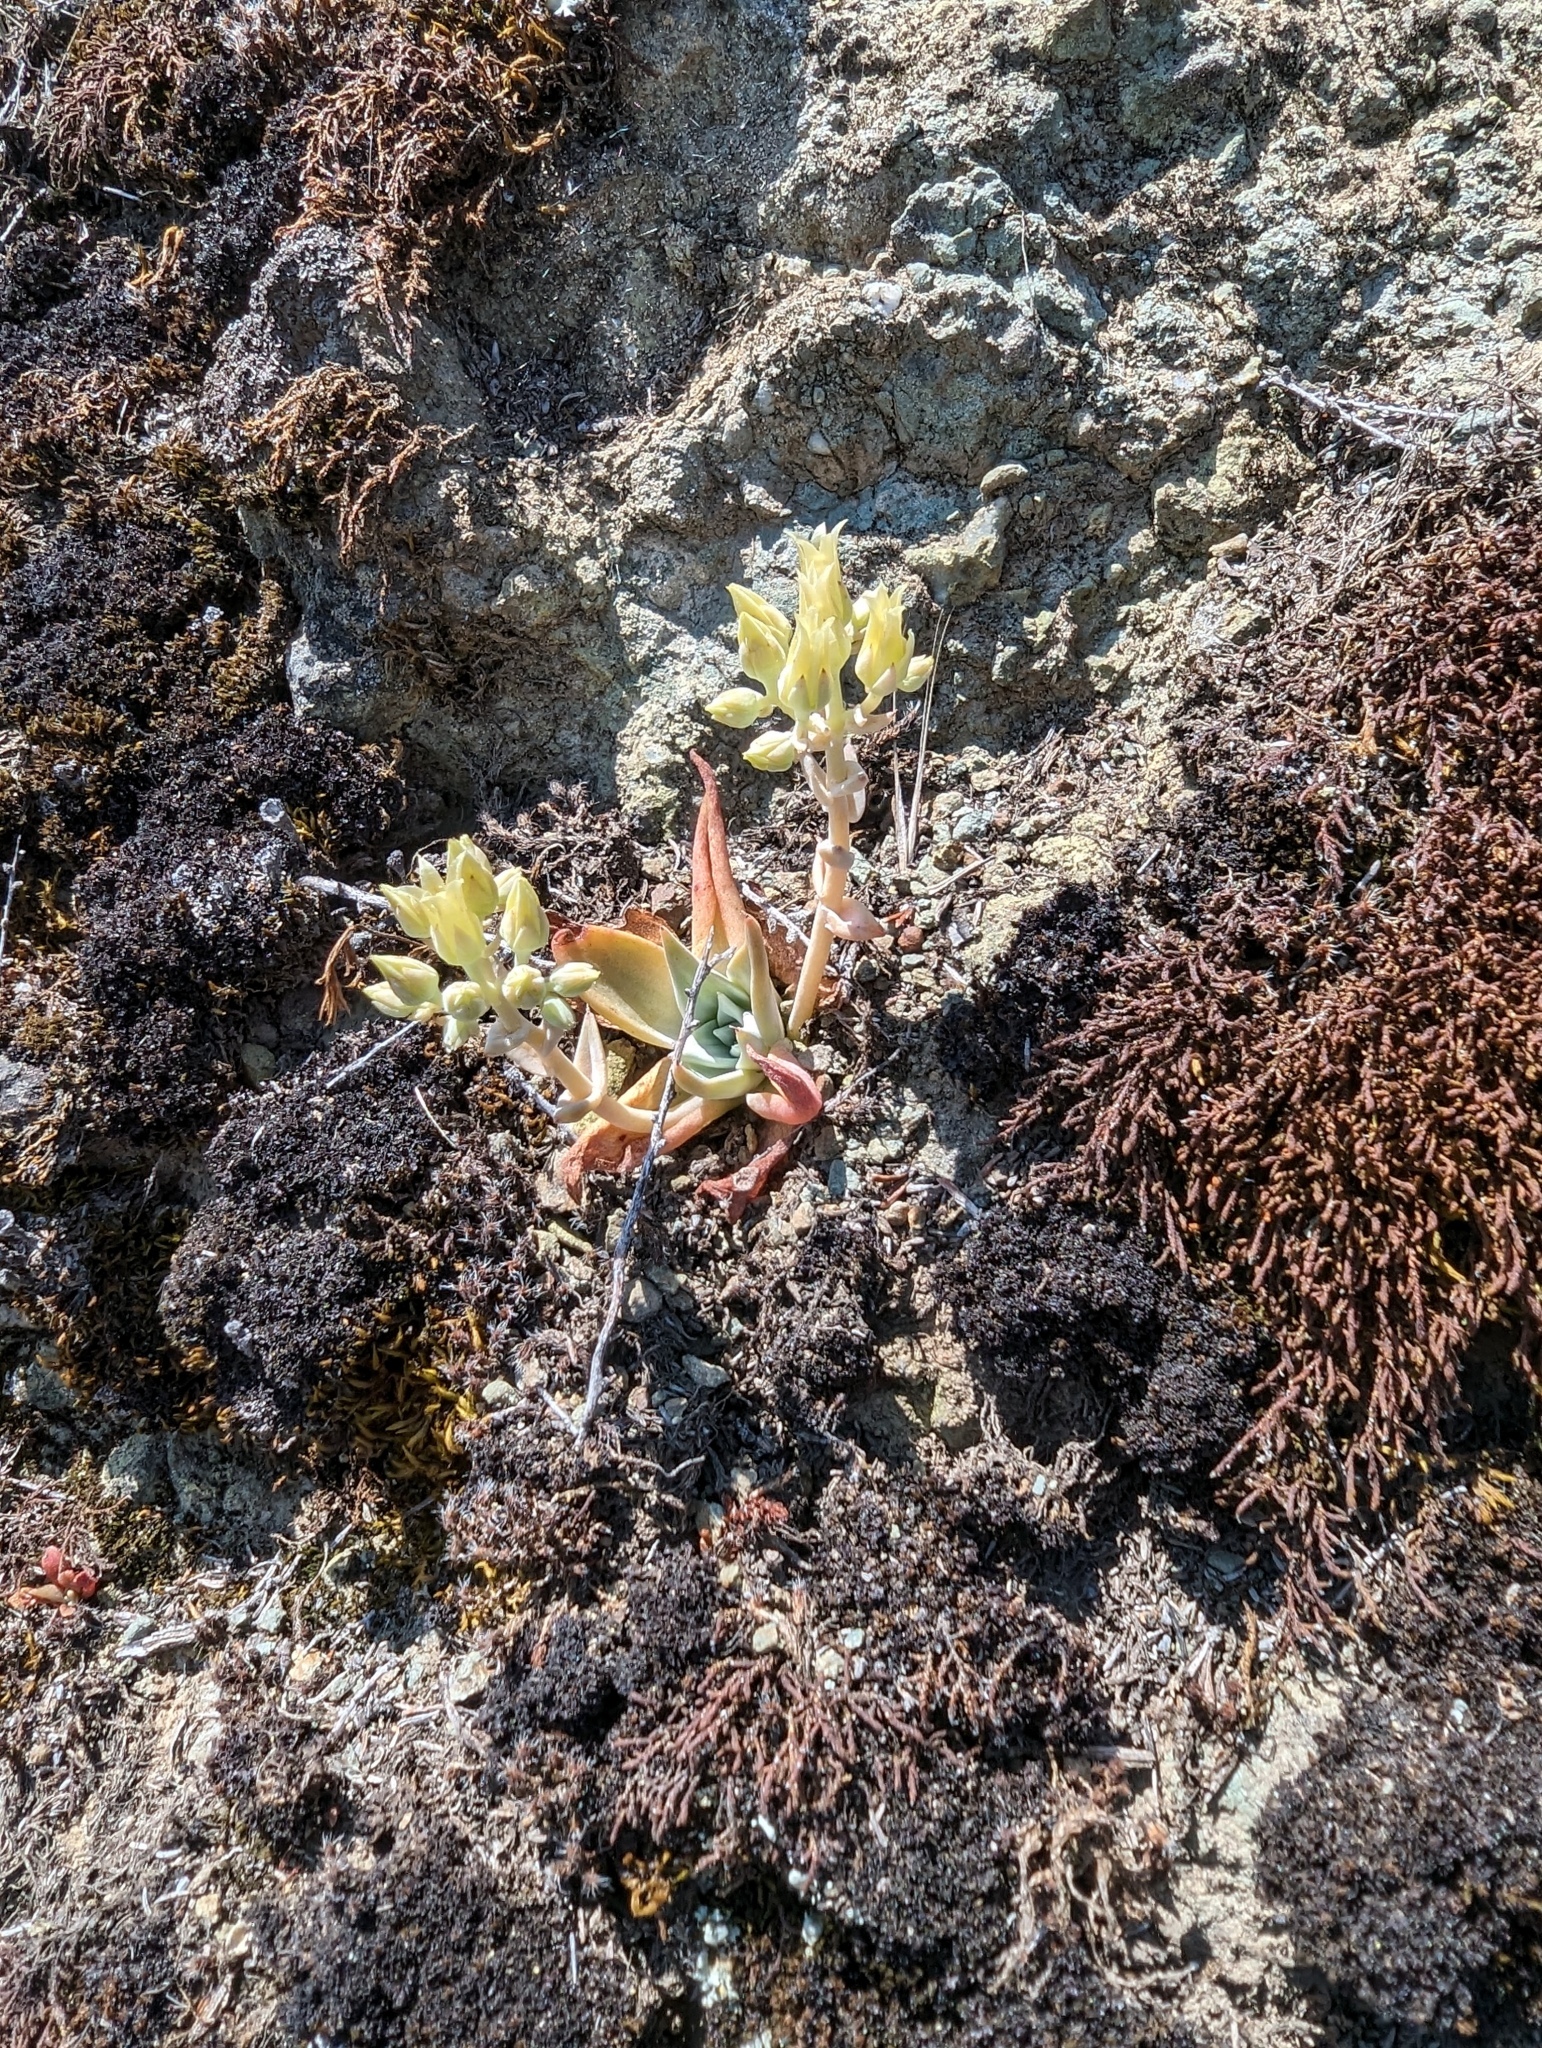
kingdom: Plantae
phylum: Tracheophyta
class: Magnoliopsida
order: Saxifragales
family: Crassulaceae
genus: Dudleya
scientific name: Dudleya cymosa
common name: Canyon dudleya
